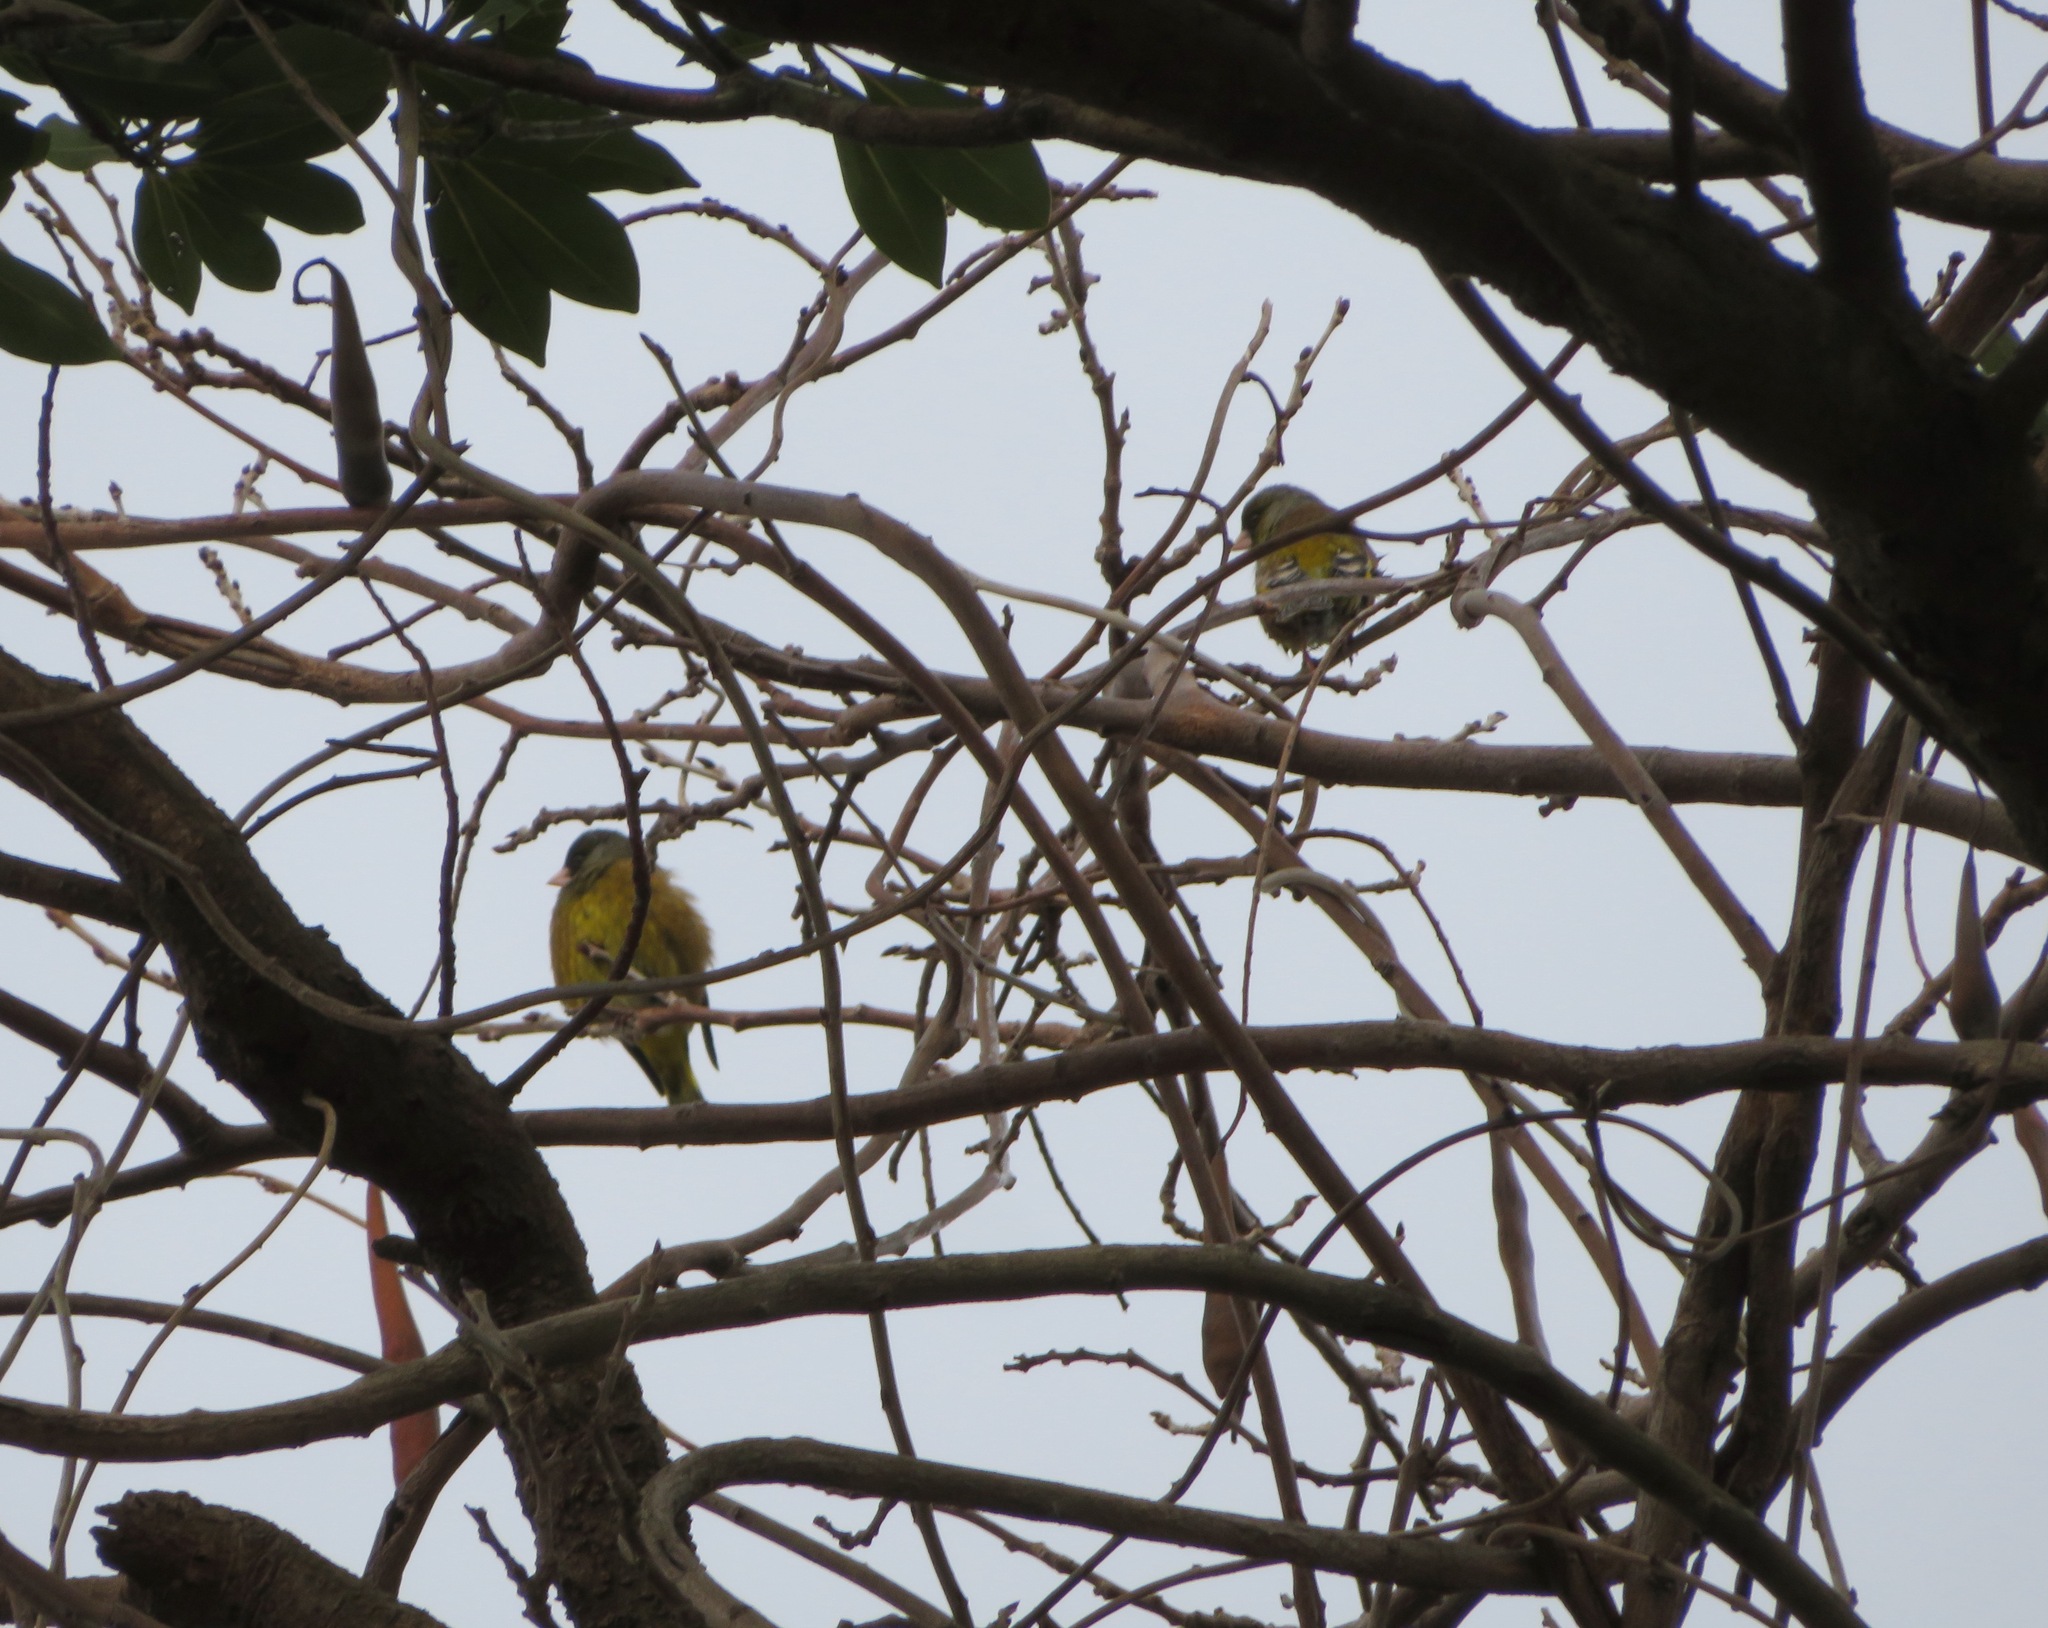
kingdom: Plantae
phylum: Tracheophyta
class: Liliopsida
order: Poales
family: Poaceae
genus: Chloris
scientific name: Chloris sinica
